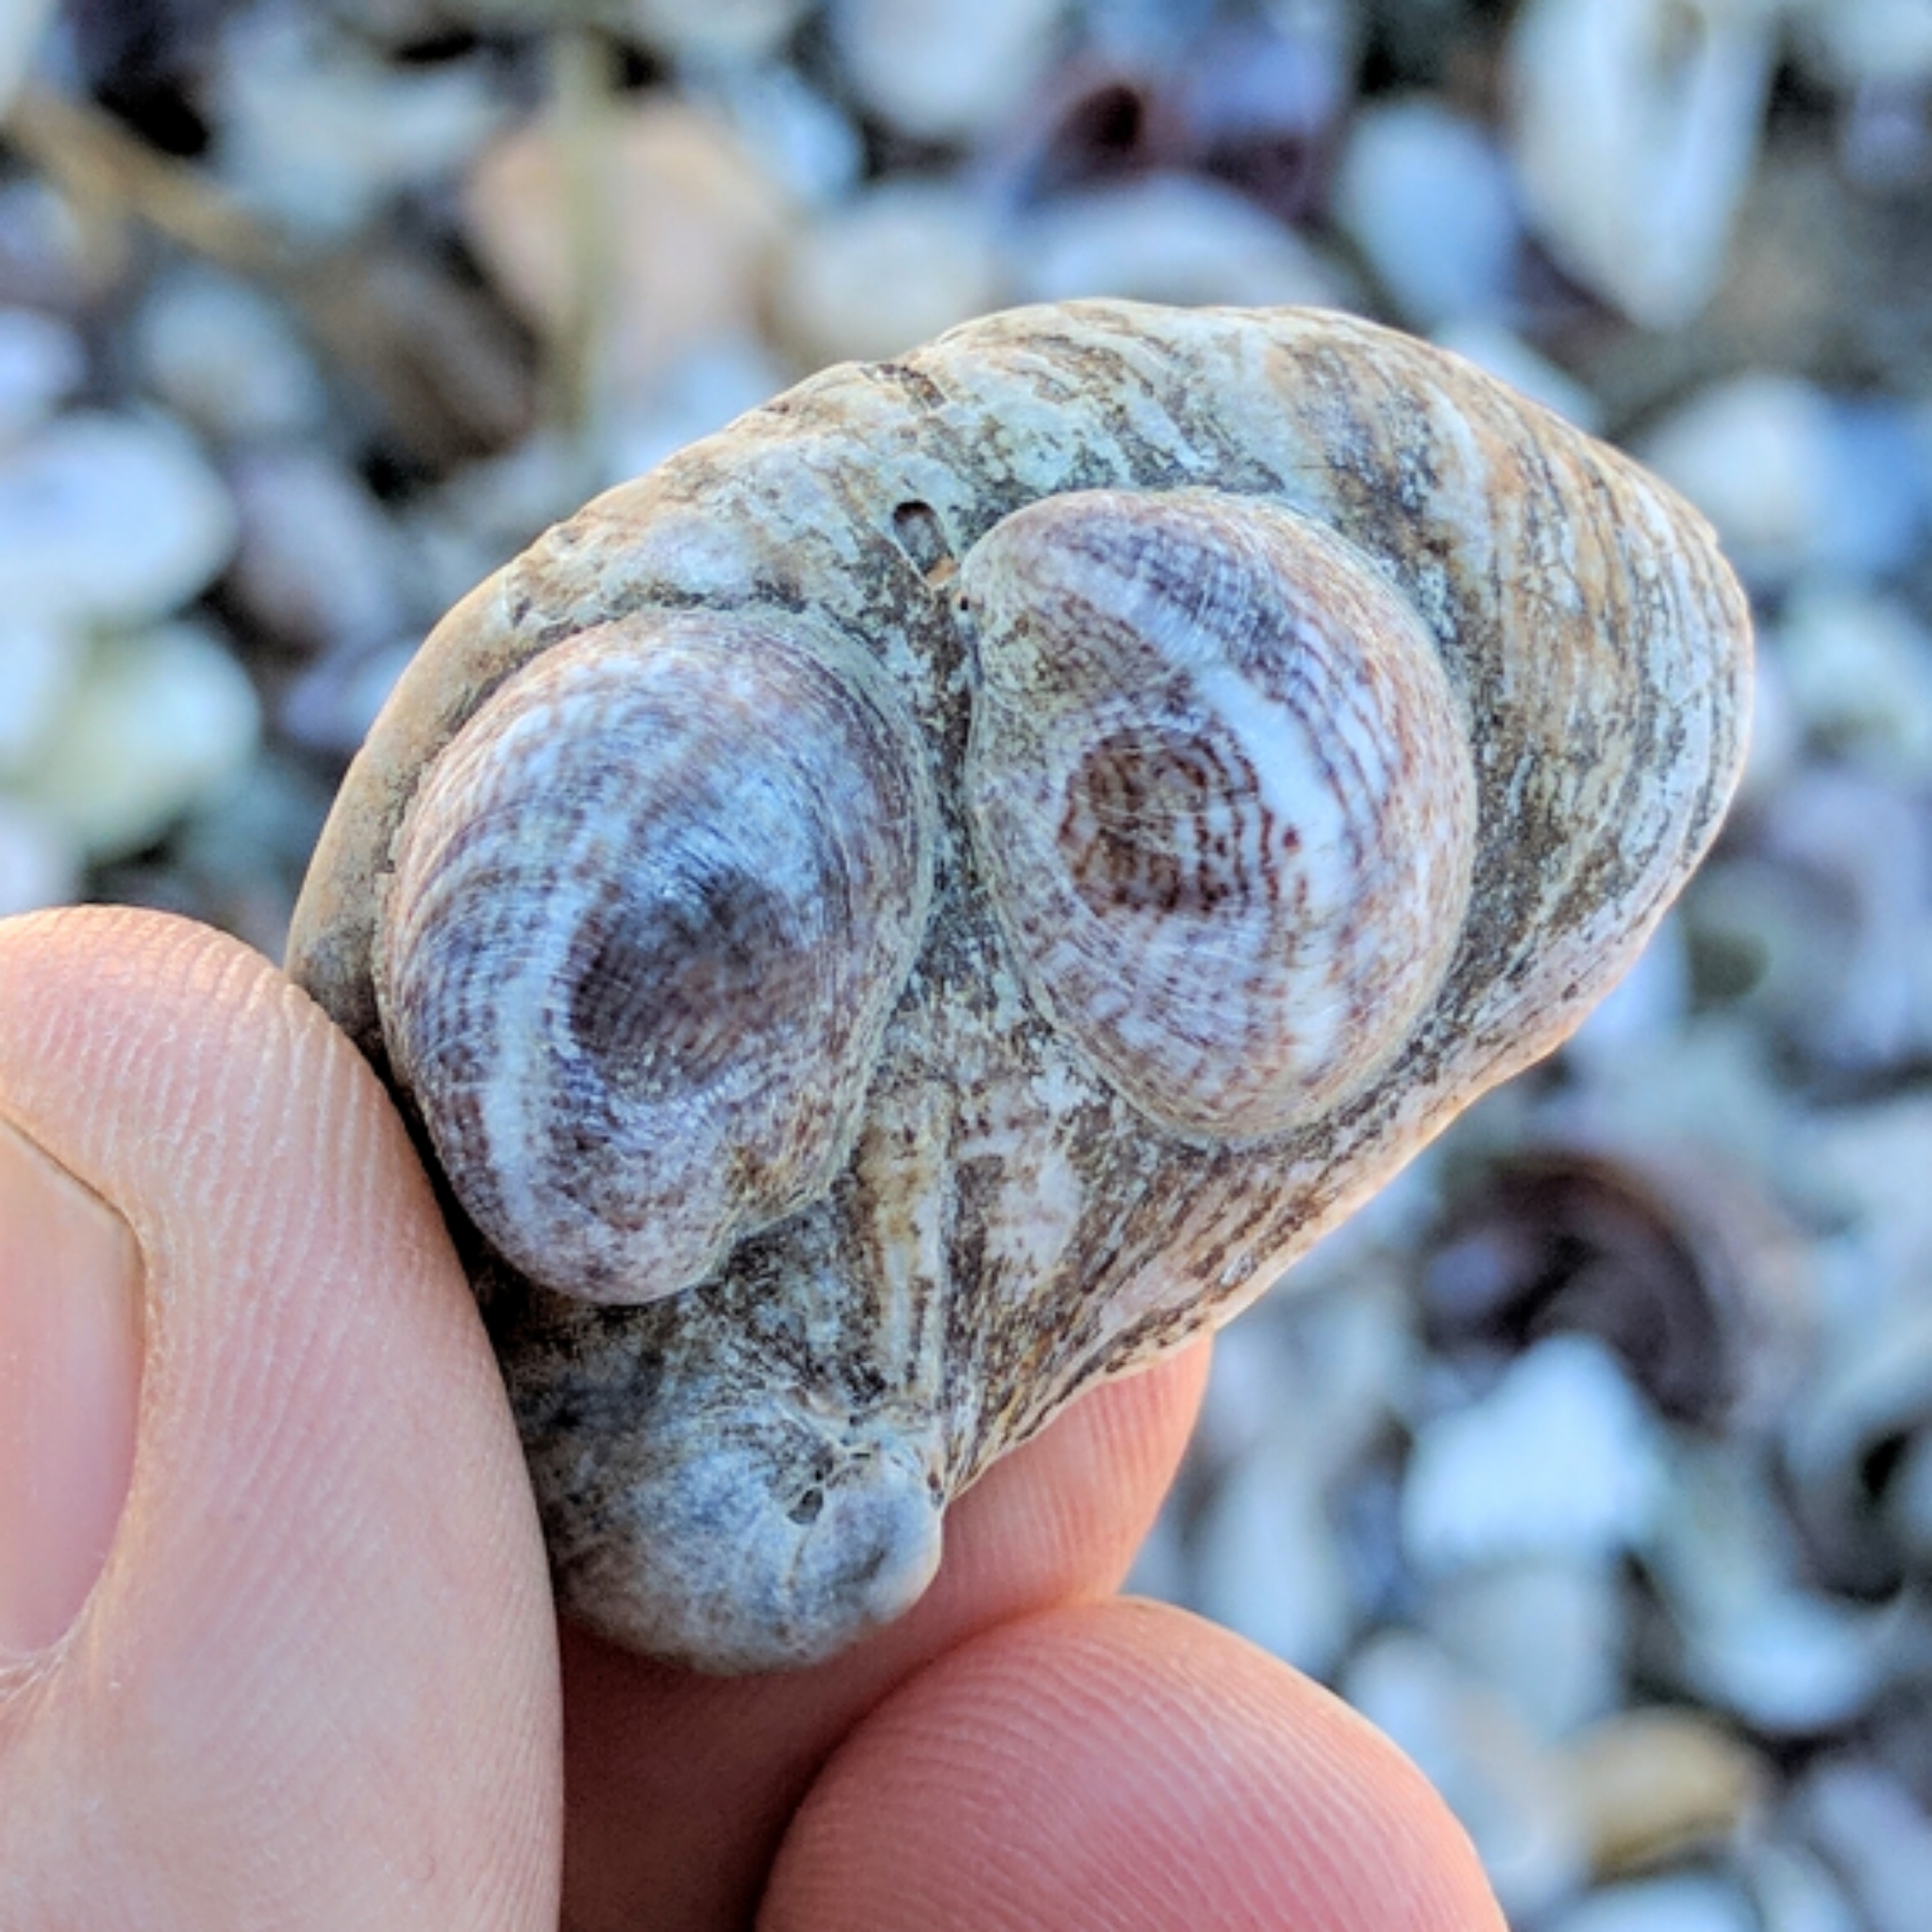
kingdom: Animalia
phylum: Mollusca
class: Gastropoda
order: Littorinimorpha
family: Calyptraeidae
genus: Crepidula
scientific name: Crepidula fornicata
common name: Slipper limpet
